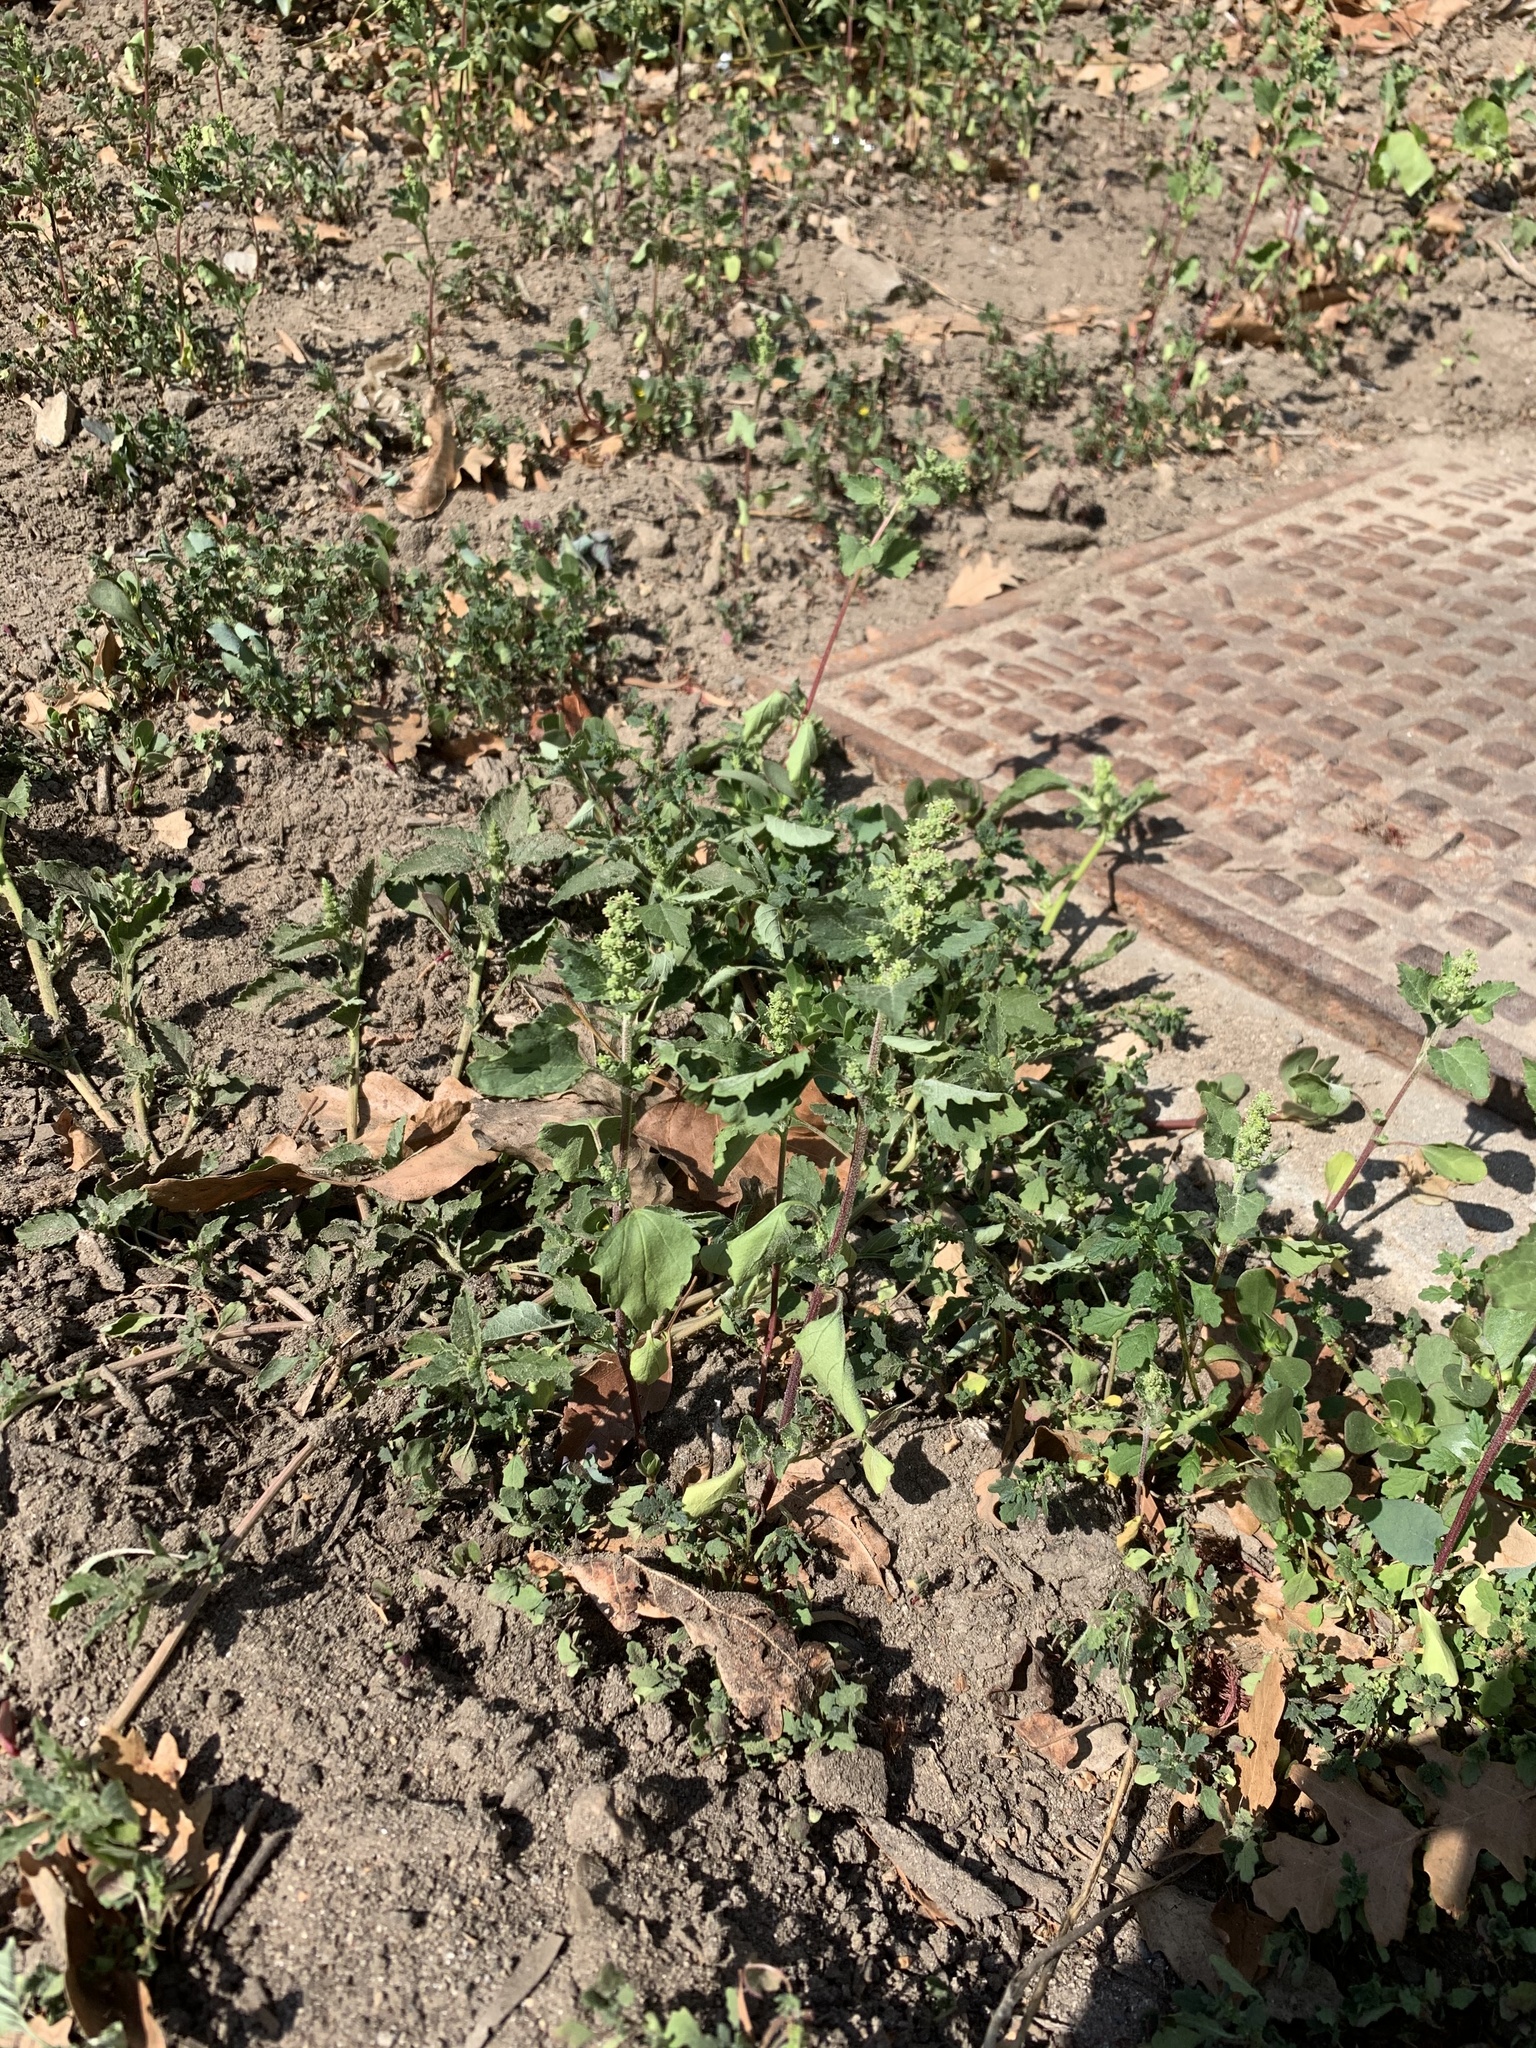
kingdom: Plantae
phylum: Tracheophyta
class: Magnoliopsida
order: Caryophyllales
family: Amaranthaceae
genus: Chenopodiastrum
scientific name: Chenopodiastrum murale
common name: Sowbane
